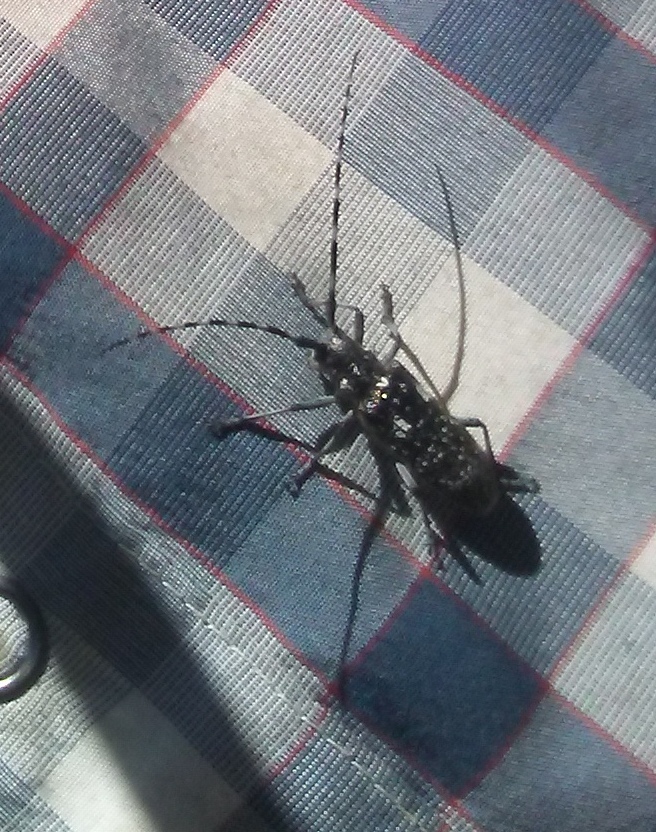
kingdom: Animalia
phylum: Arthropoda
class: Insecta
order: Coleoptera
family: Cerambycidae
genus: Monochamus
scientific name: Monochamus scutellatus
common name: White-spotted sawyer beetle
